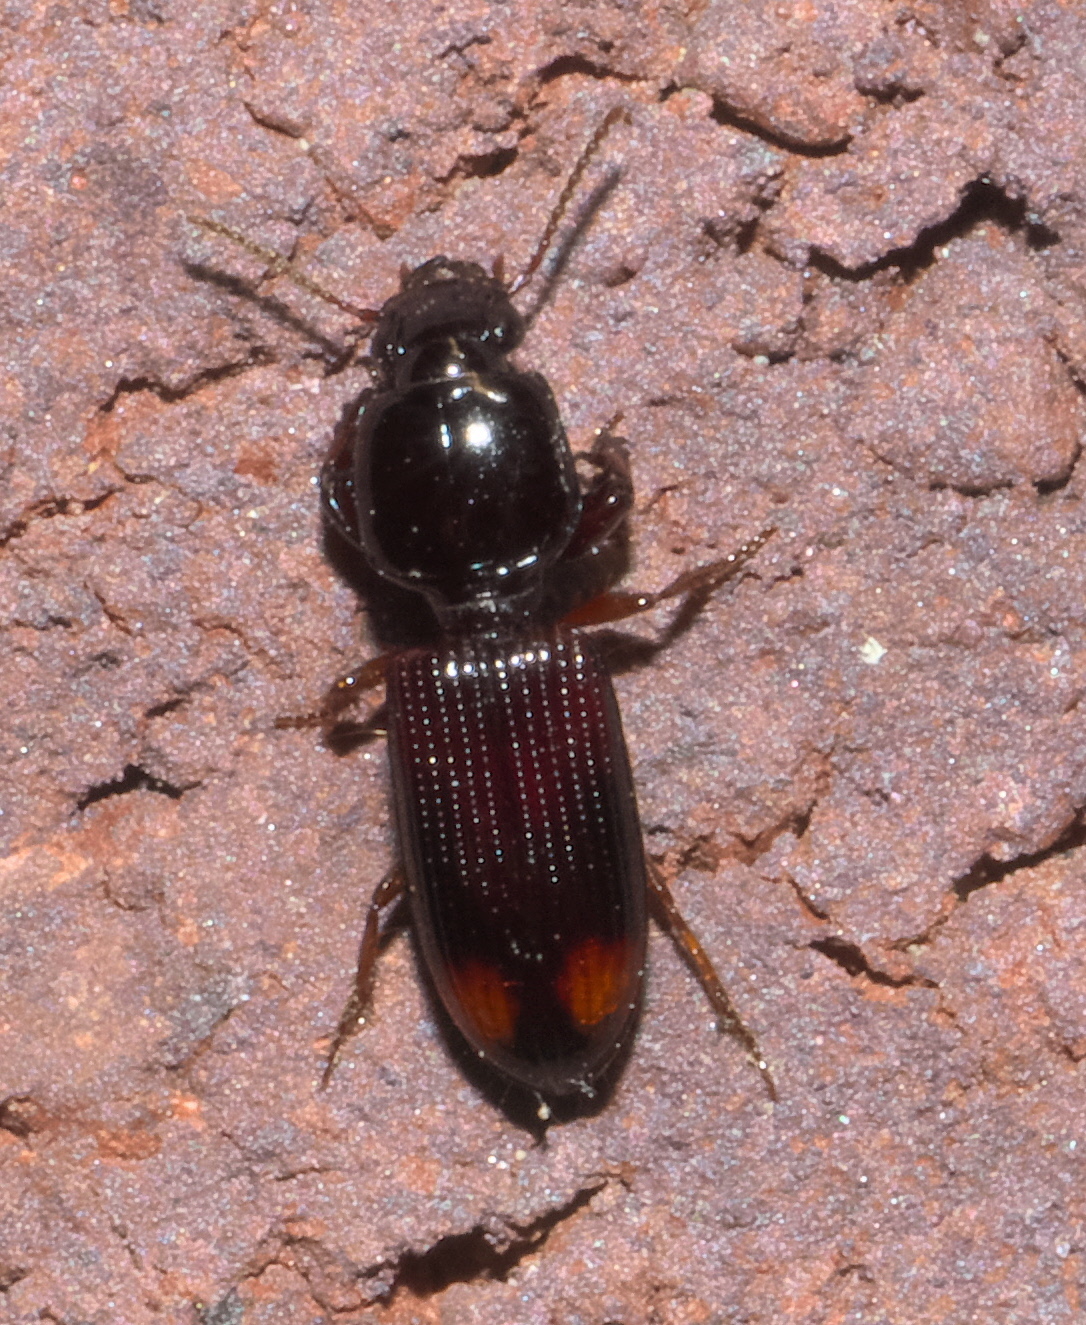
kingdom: Animalia
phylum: Arthropoda
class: Insecta
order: Coleoptera
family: Carabidae
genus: Clivina
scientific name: Clivina bipustulata
